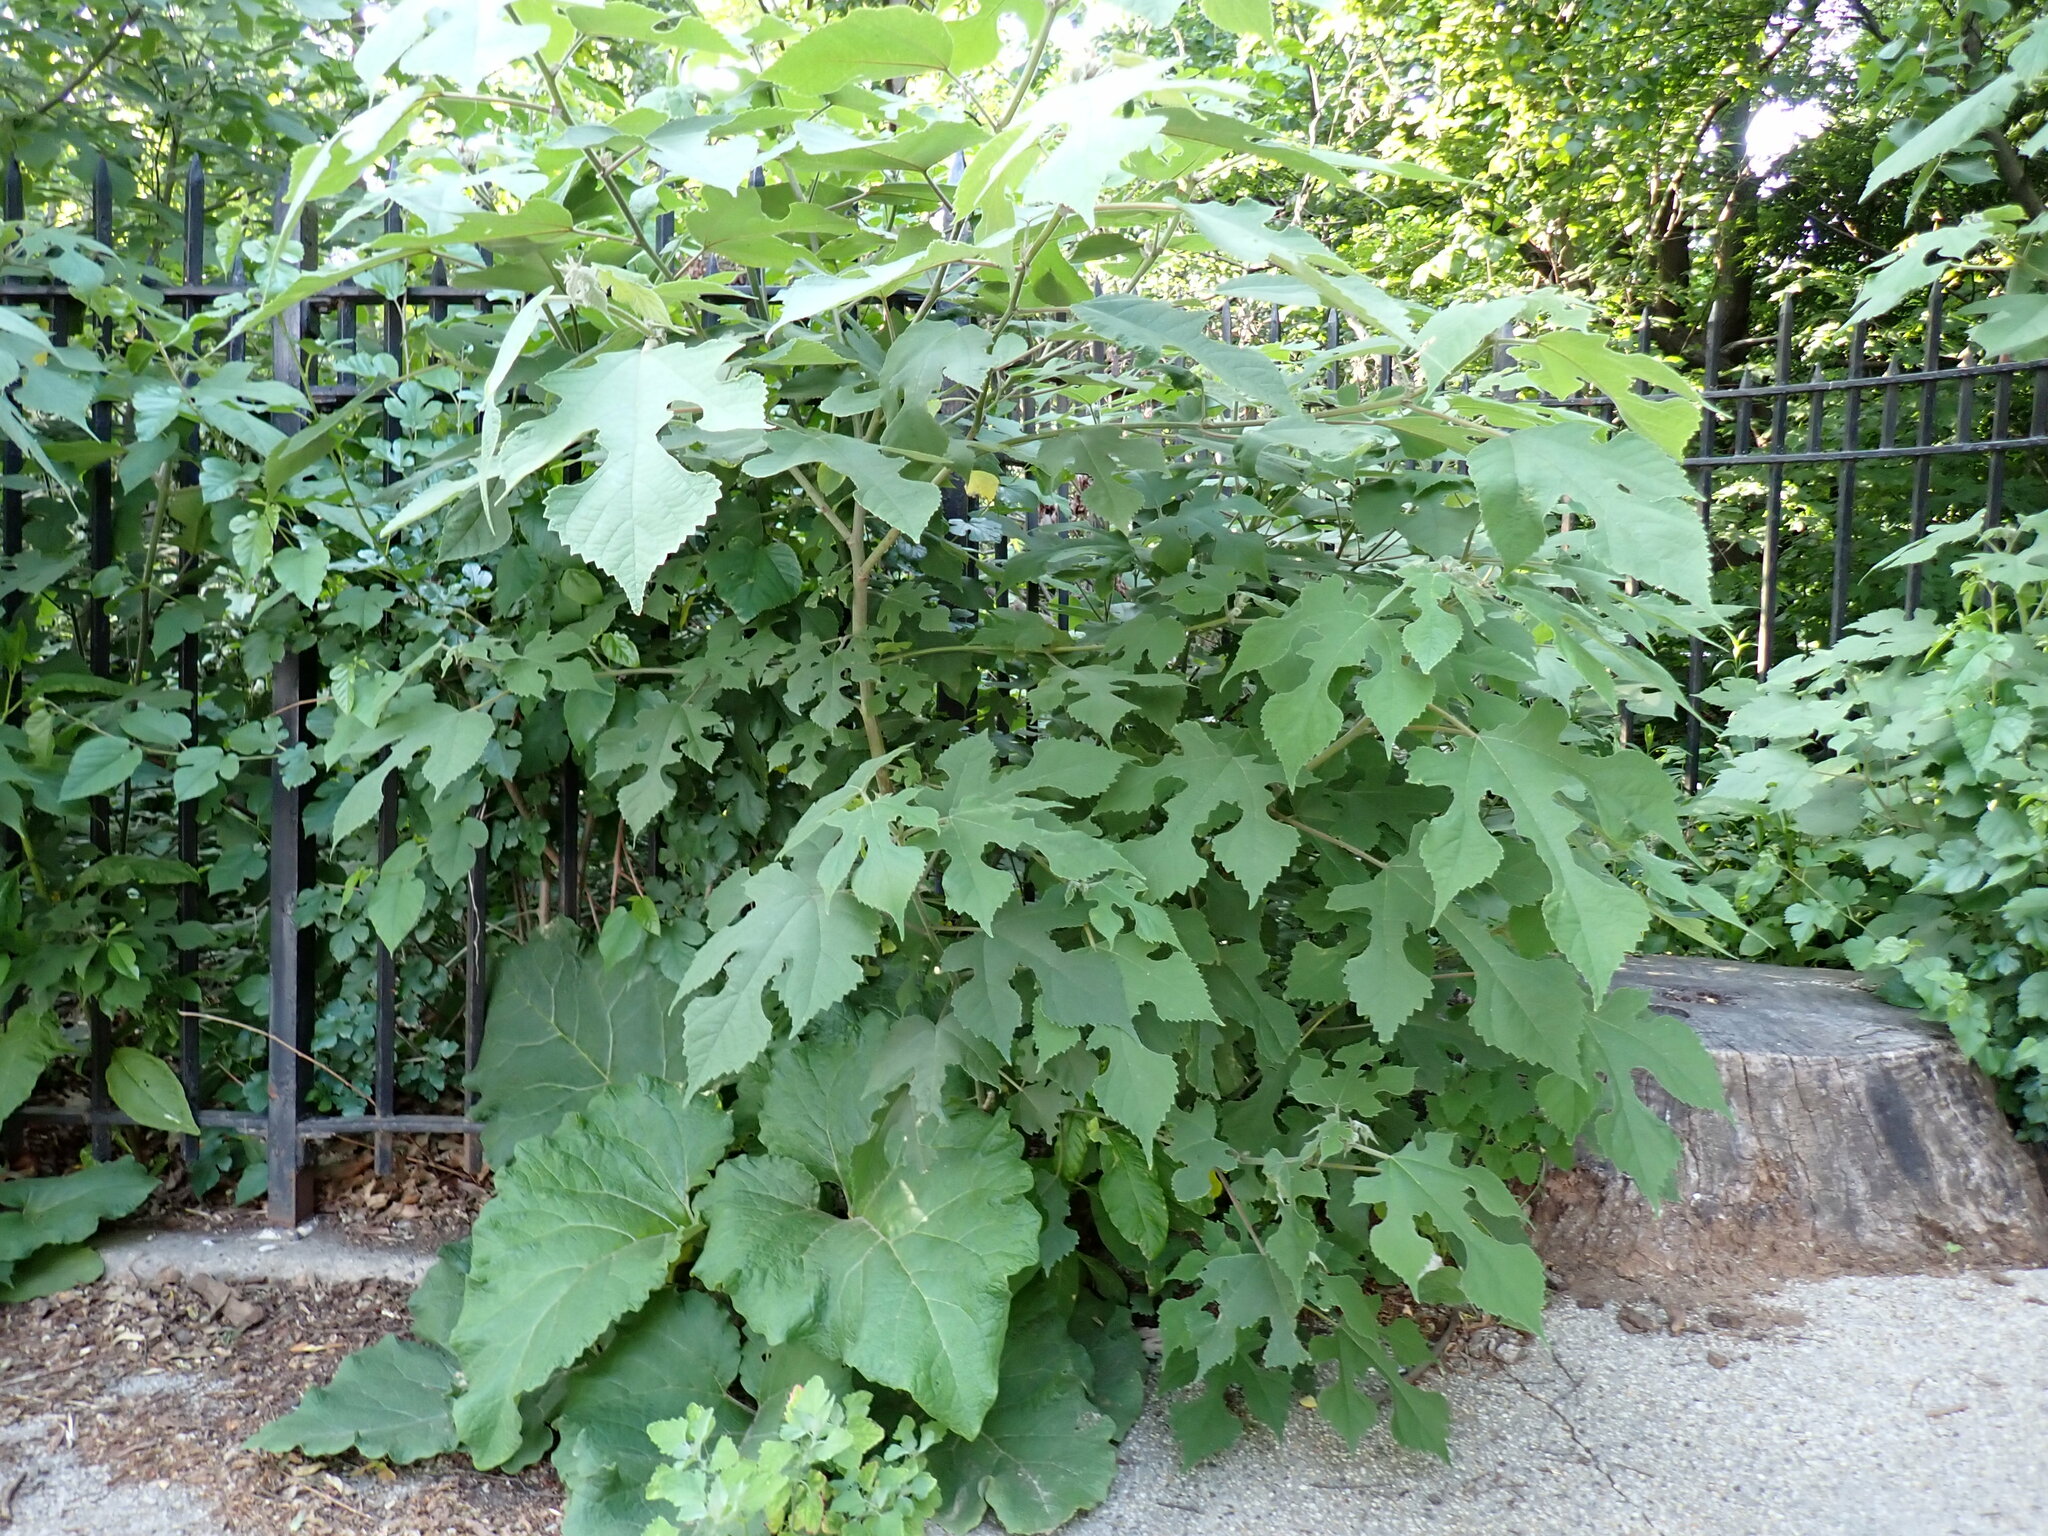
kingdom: Plantae
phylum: Tracheophyta
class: Magnoliopsida
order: Rosales
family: Moraceae
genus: Broussonetia
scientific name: Broussonetia papyrifera
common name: Paper mulberry
